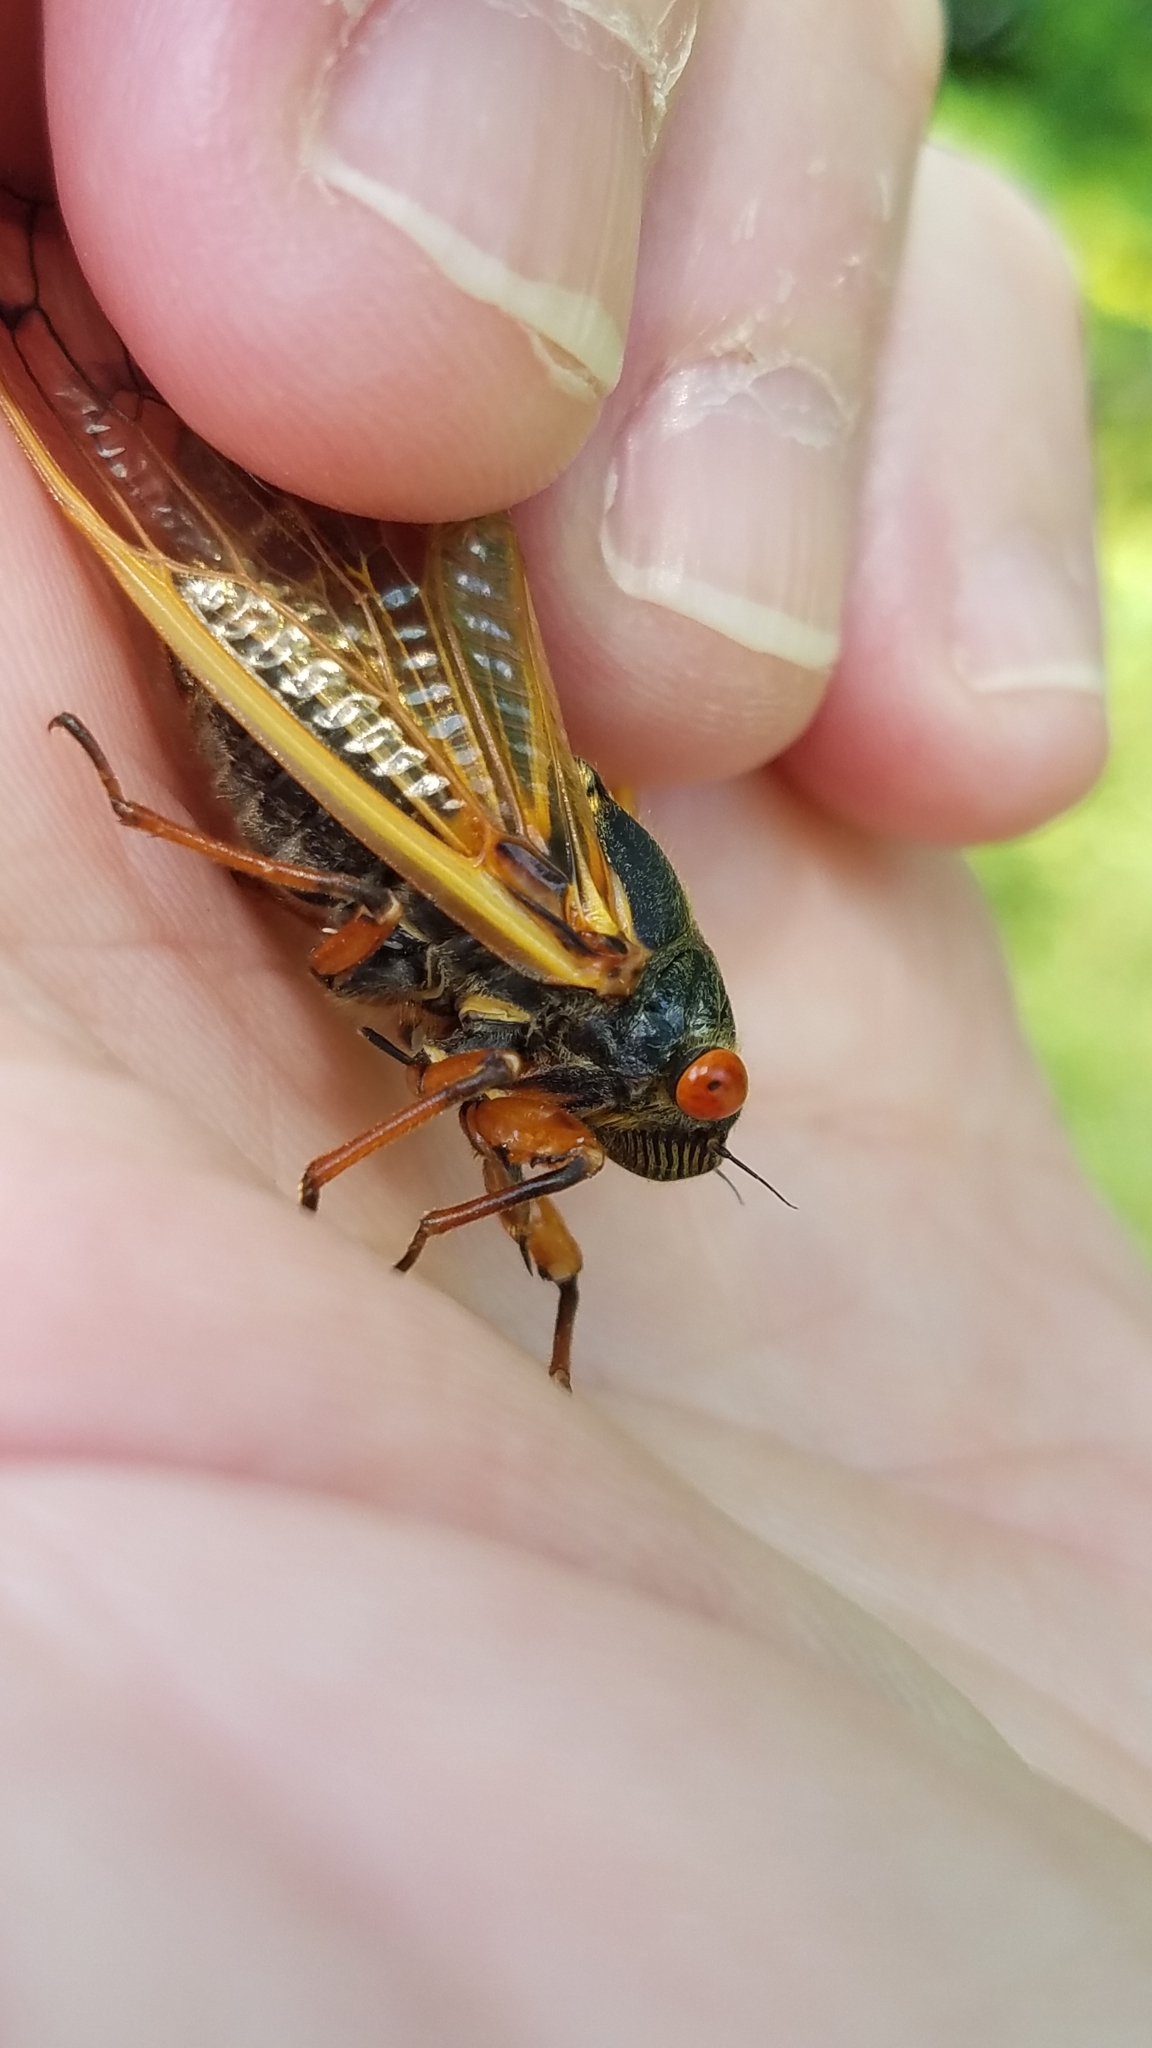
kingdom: Animalia
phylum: Arthropoda
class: Insecta
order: Hemiptera
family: Cicadidae
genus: Magicicada
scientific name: Magicicada cassini
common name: Cassin's 17-year cicada
